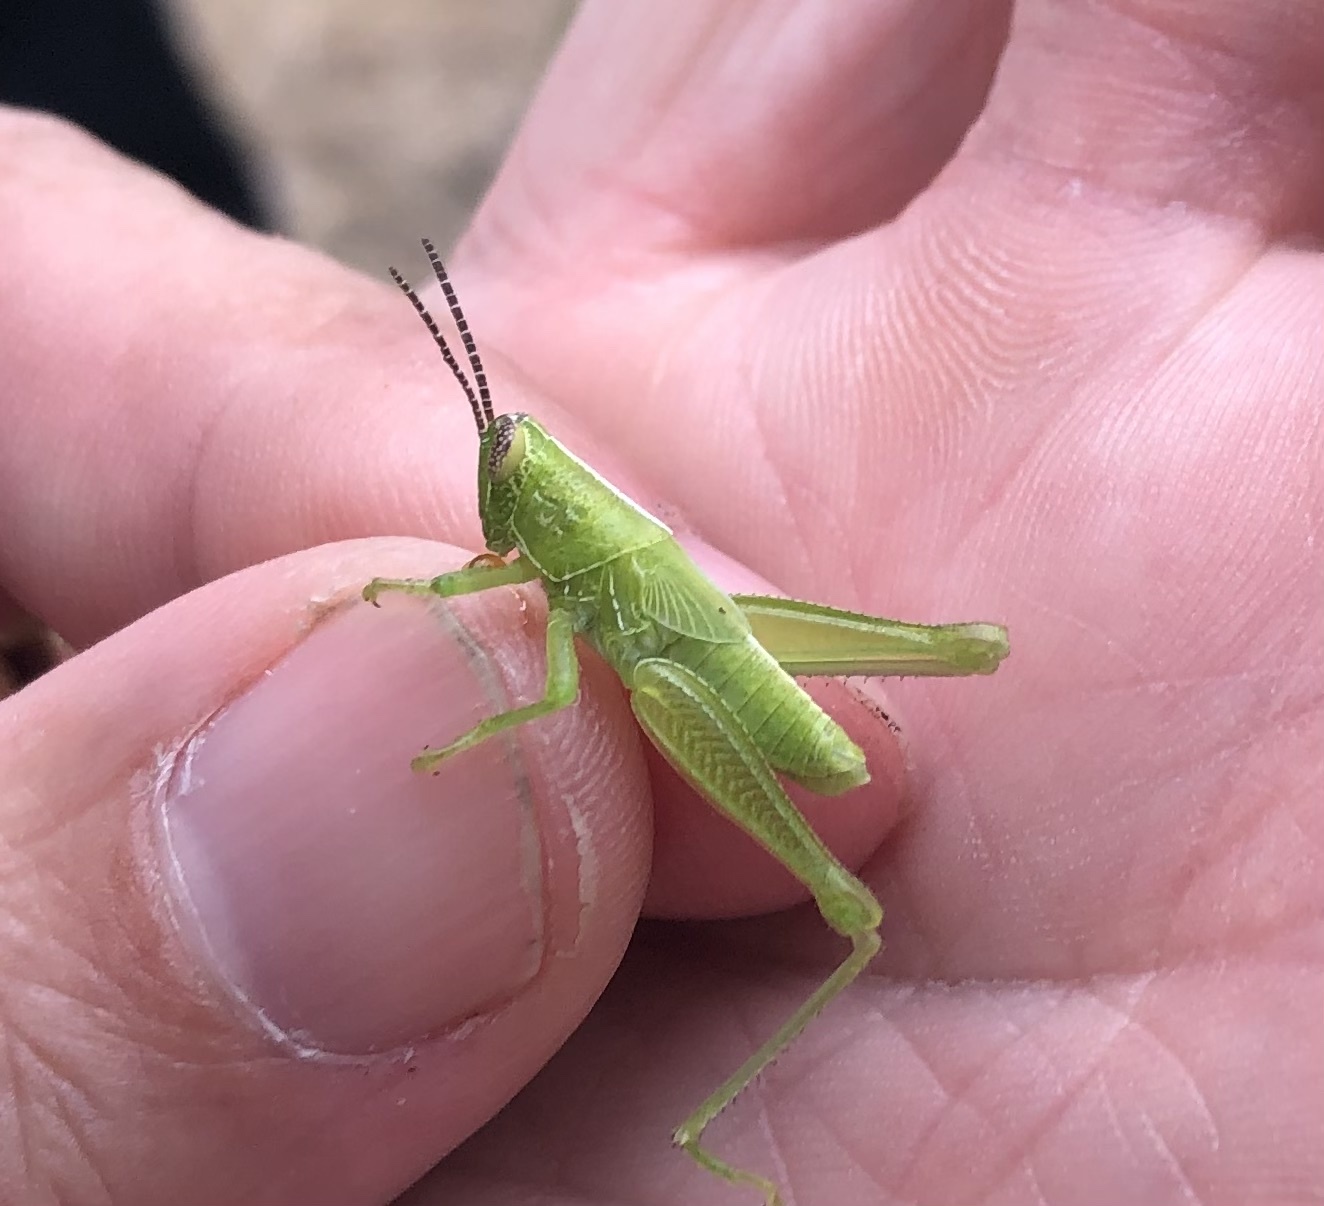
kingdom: Animalia
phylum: Arthropoda
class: Insecta
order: Orthoptera
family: Acrididae
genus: Hesperotettix
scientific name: Hesperotettix viridis
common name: Meadow purple-striped grasshopper
